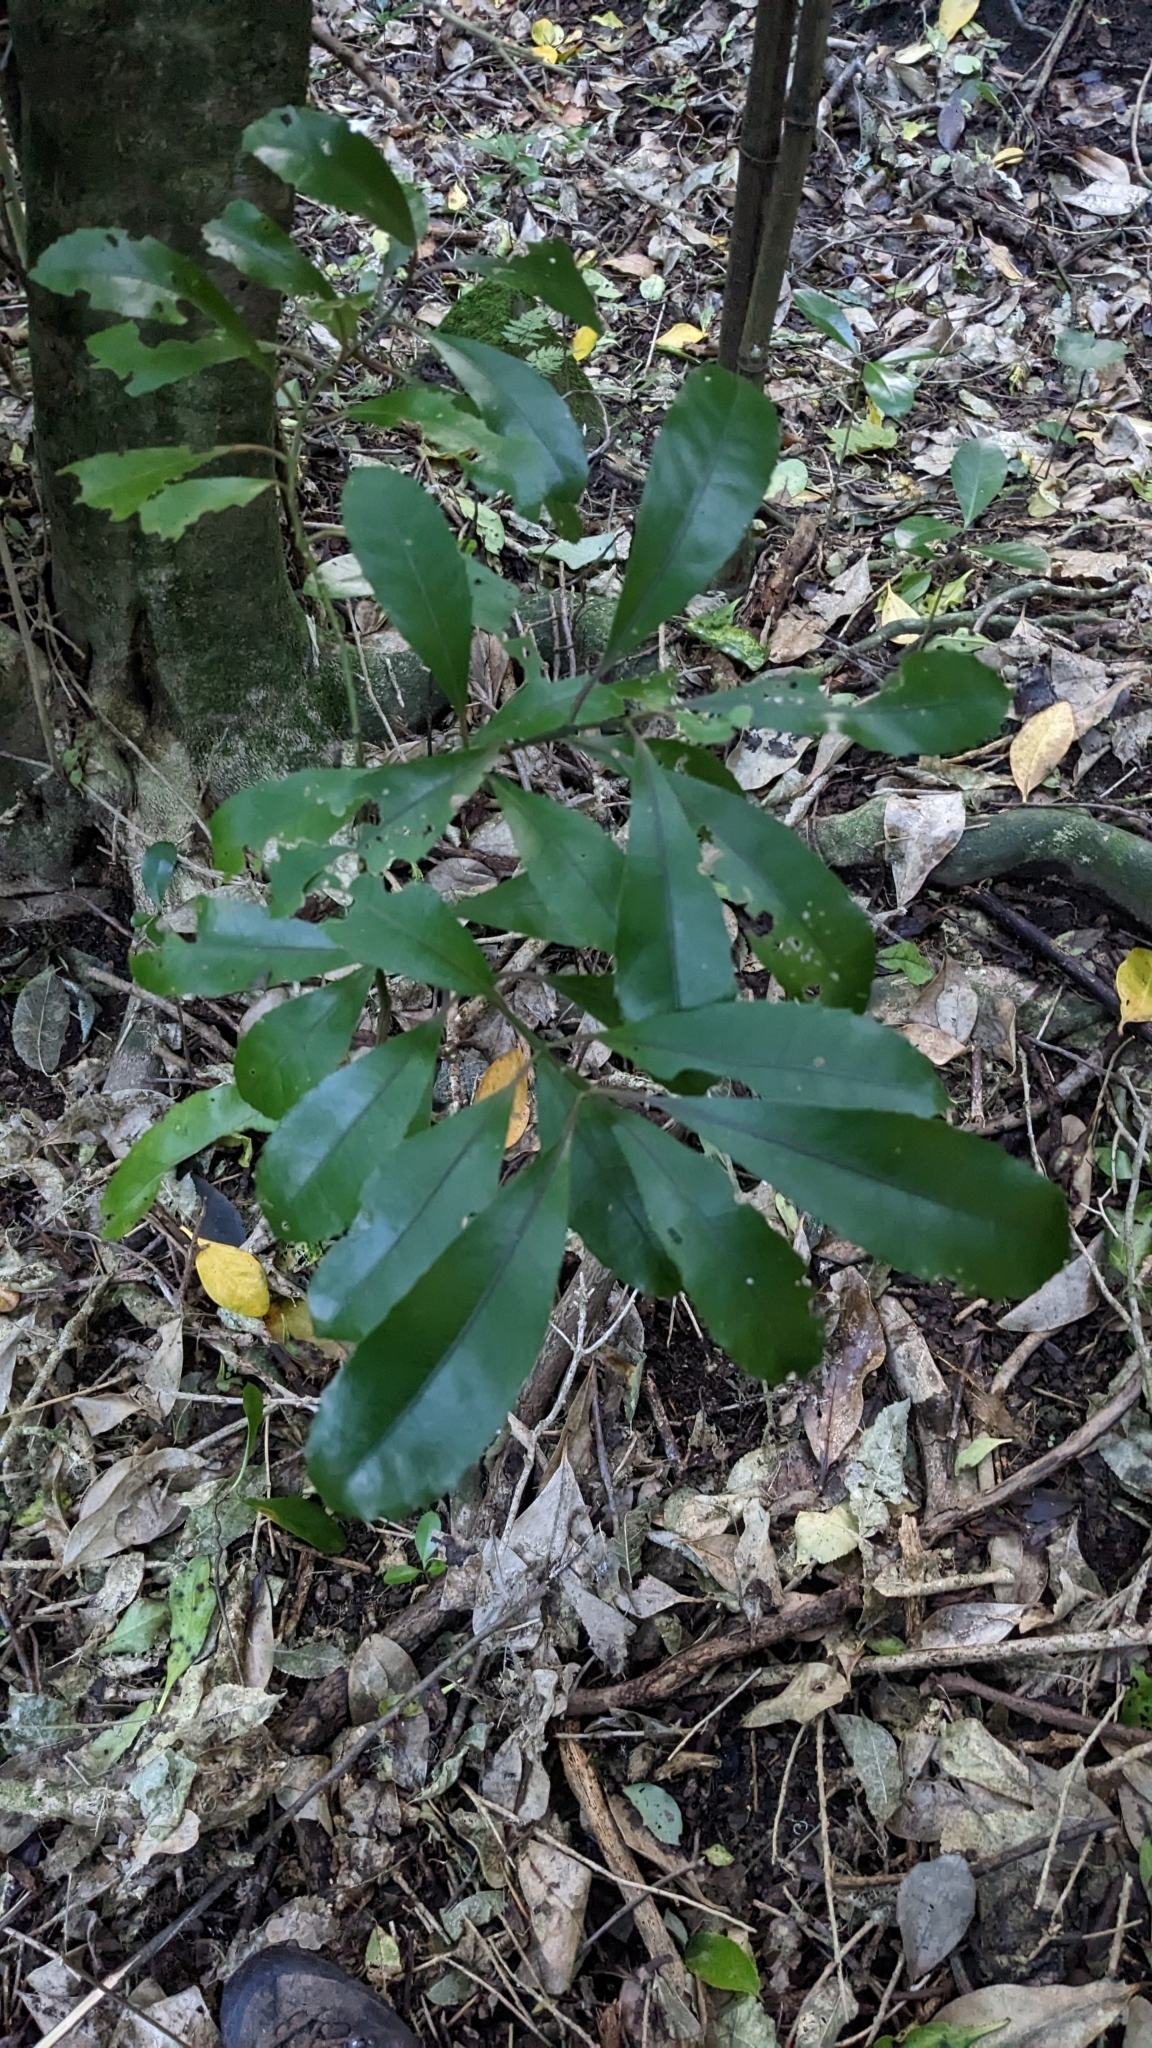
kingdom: Plantae
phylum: Tracheophyta
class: Magnoliopsida
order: Laurales
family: Monimiaceae
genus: Hedycarya
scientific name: Hedycarya arborea
